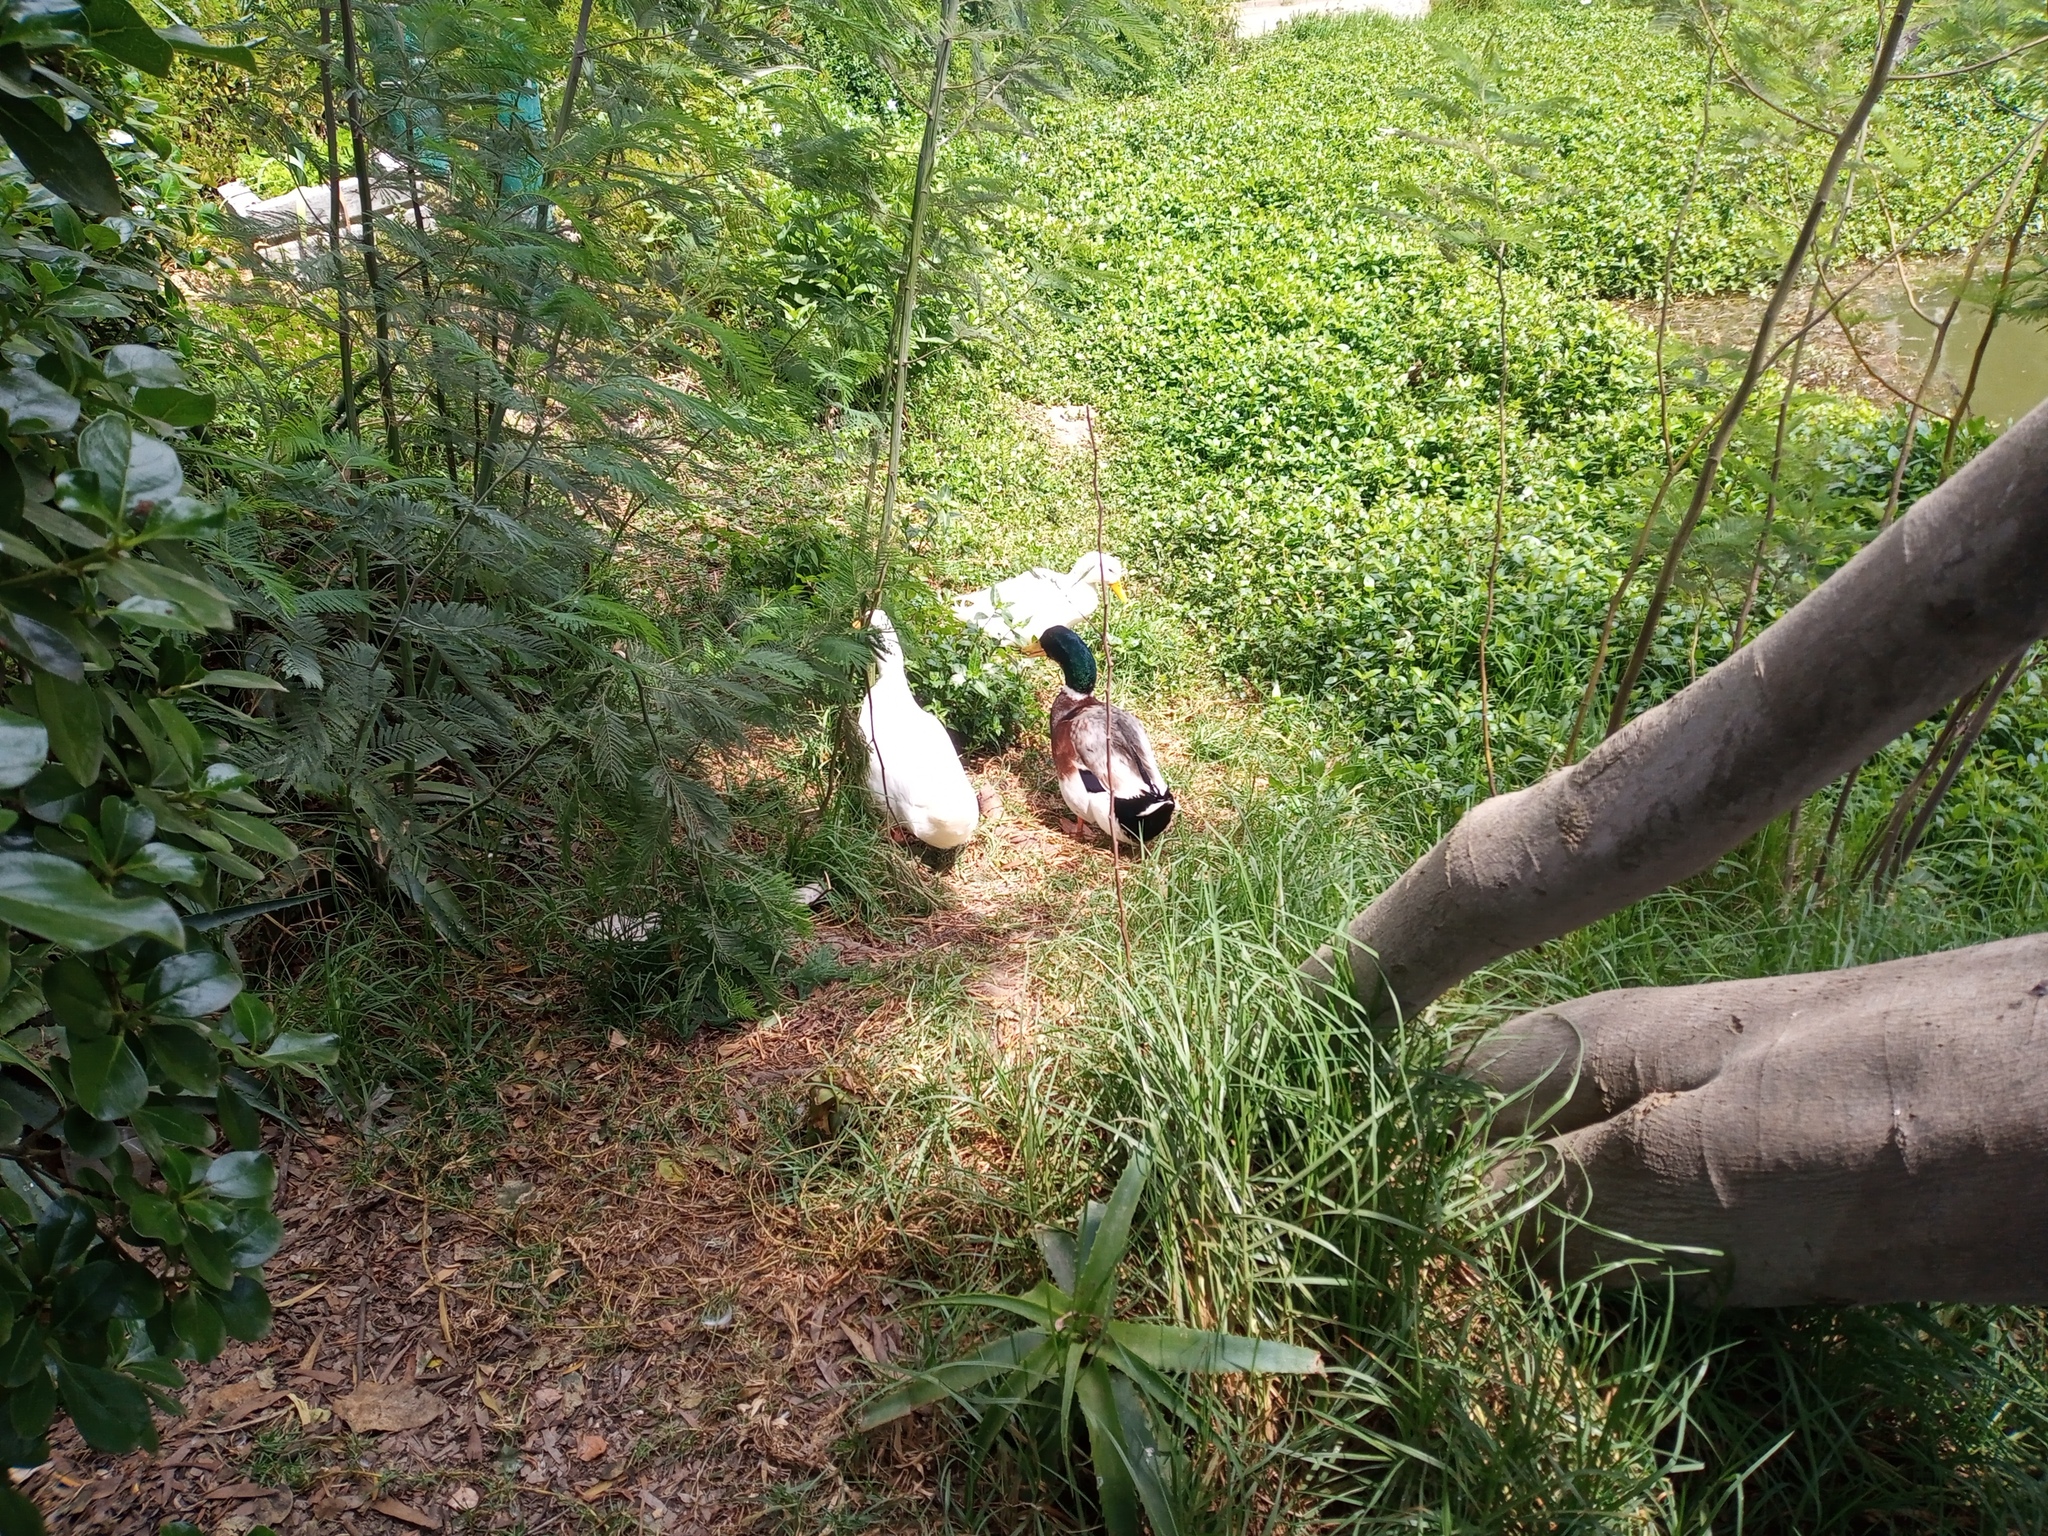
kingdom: Animalia
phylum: Chordata
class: Aves
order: Anseriformes
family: Anatidae
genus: Anas
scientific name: Anas platyrhynchos
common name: Mallard
